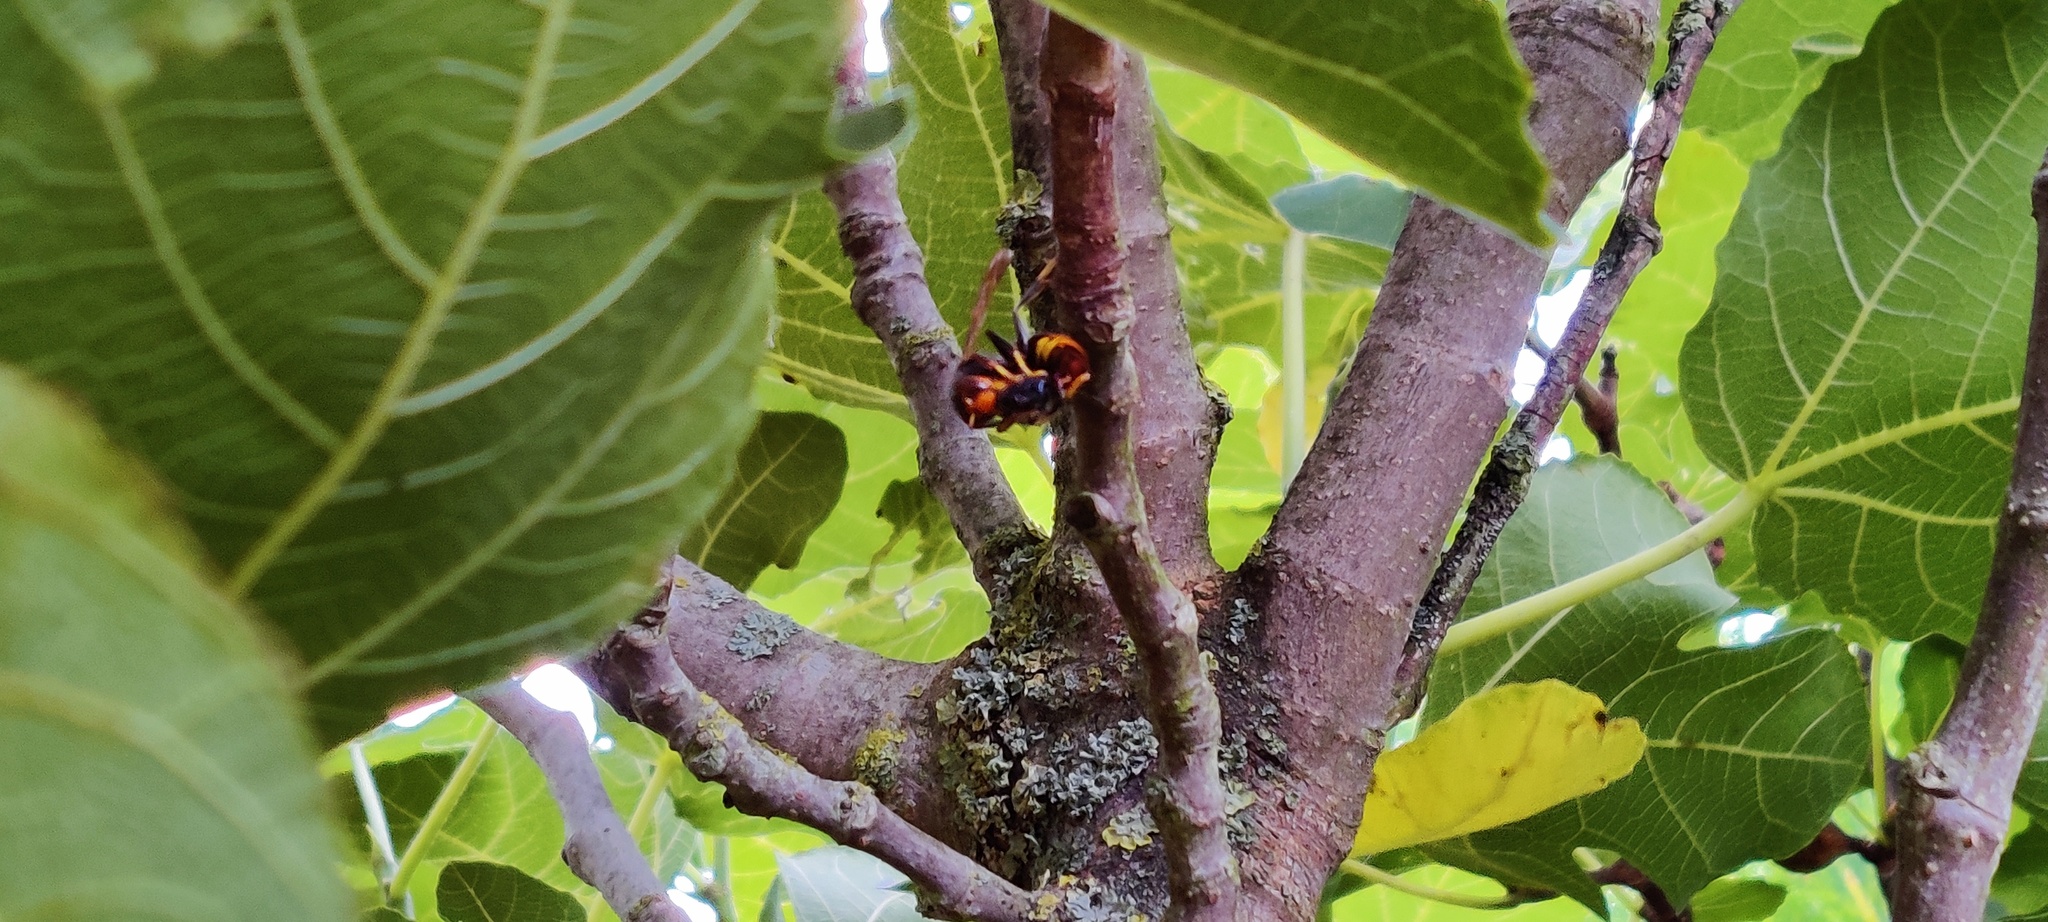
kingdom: Animalia
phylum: Arthropoda
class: Insecta
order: Hymenoptera
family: Vespidae
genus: Vespa
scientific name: Vespa velutina
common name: Asian hornet
